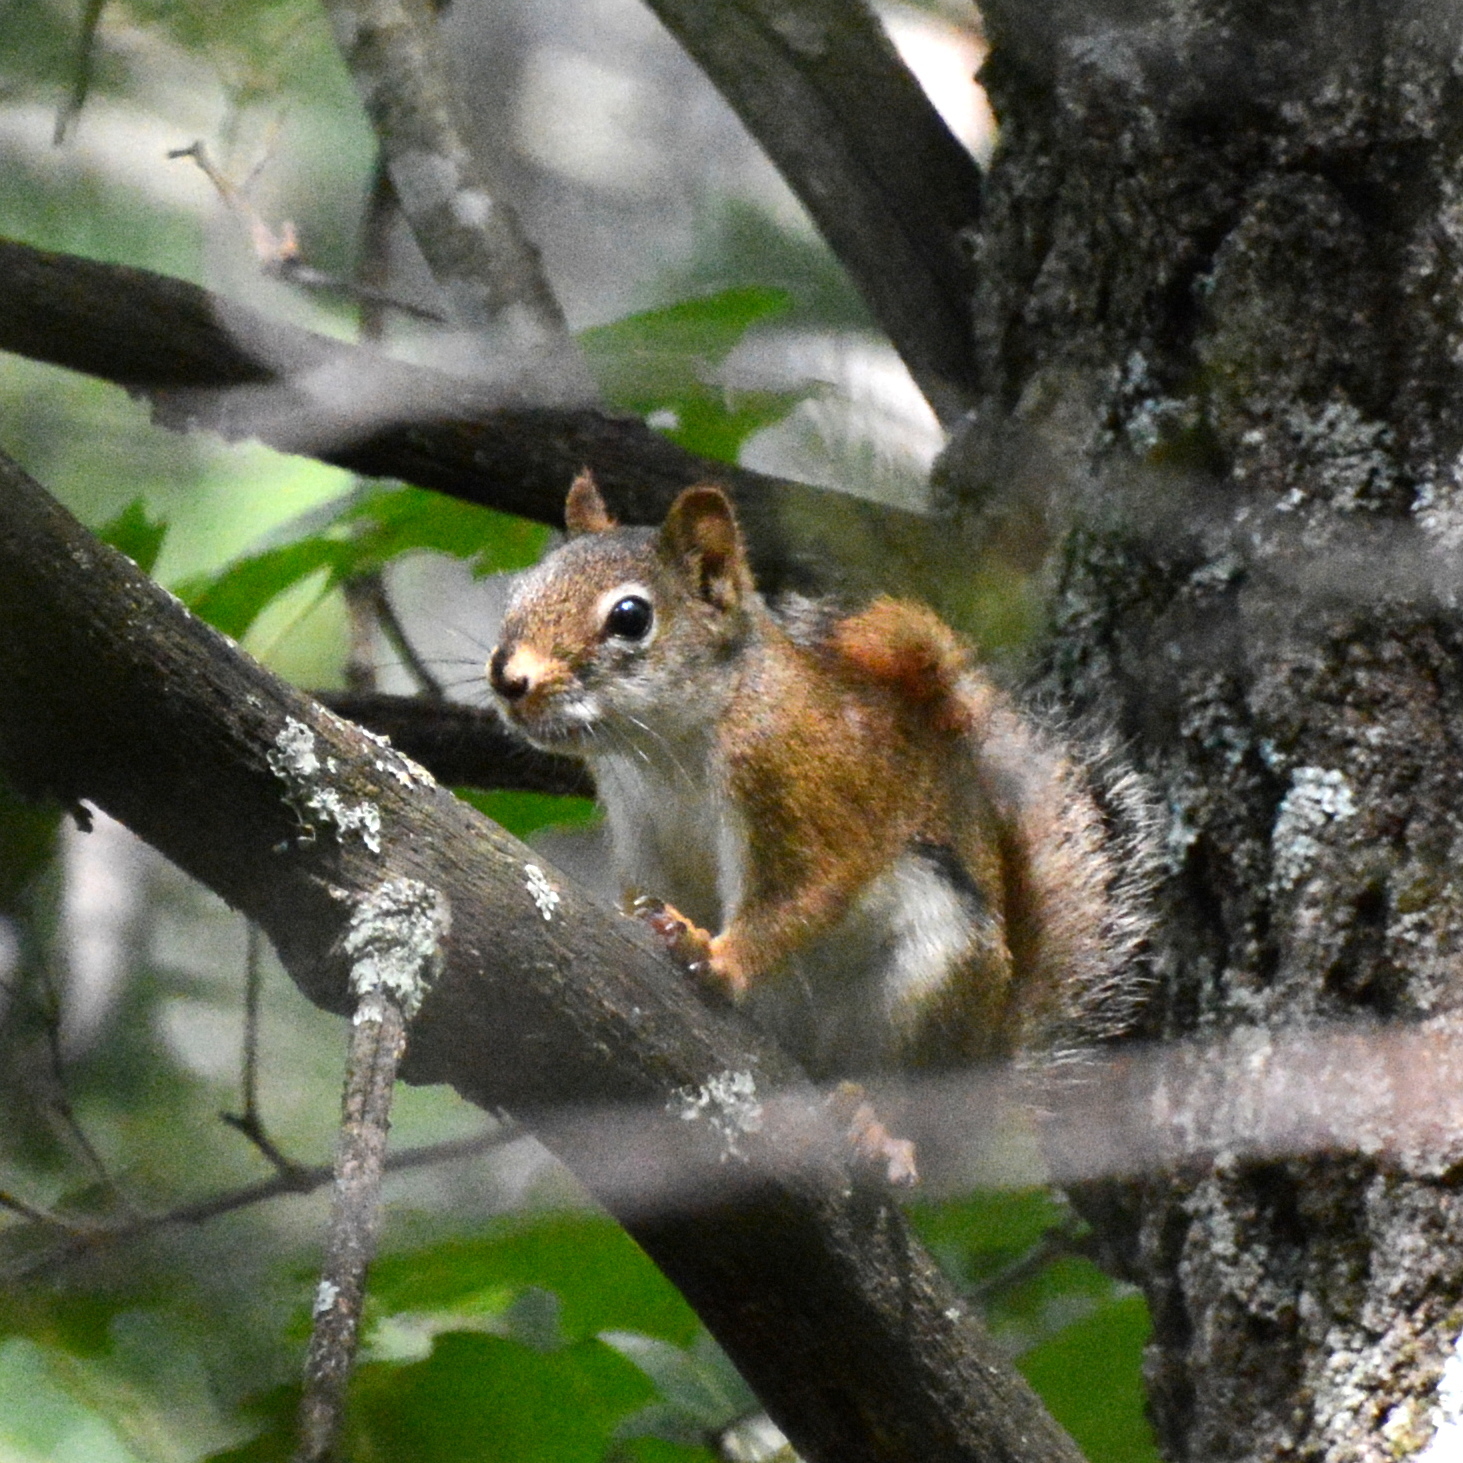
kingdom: Animalia
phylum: Chordata
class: Mammalia
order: Rodentia
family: Sciuridae
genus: Tamiasciurus
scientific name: Tamiasciurus hudsonicus
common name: Red squirrel
